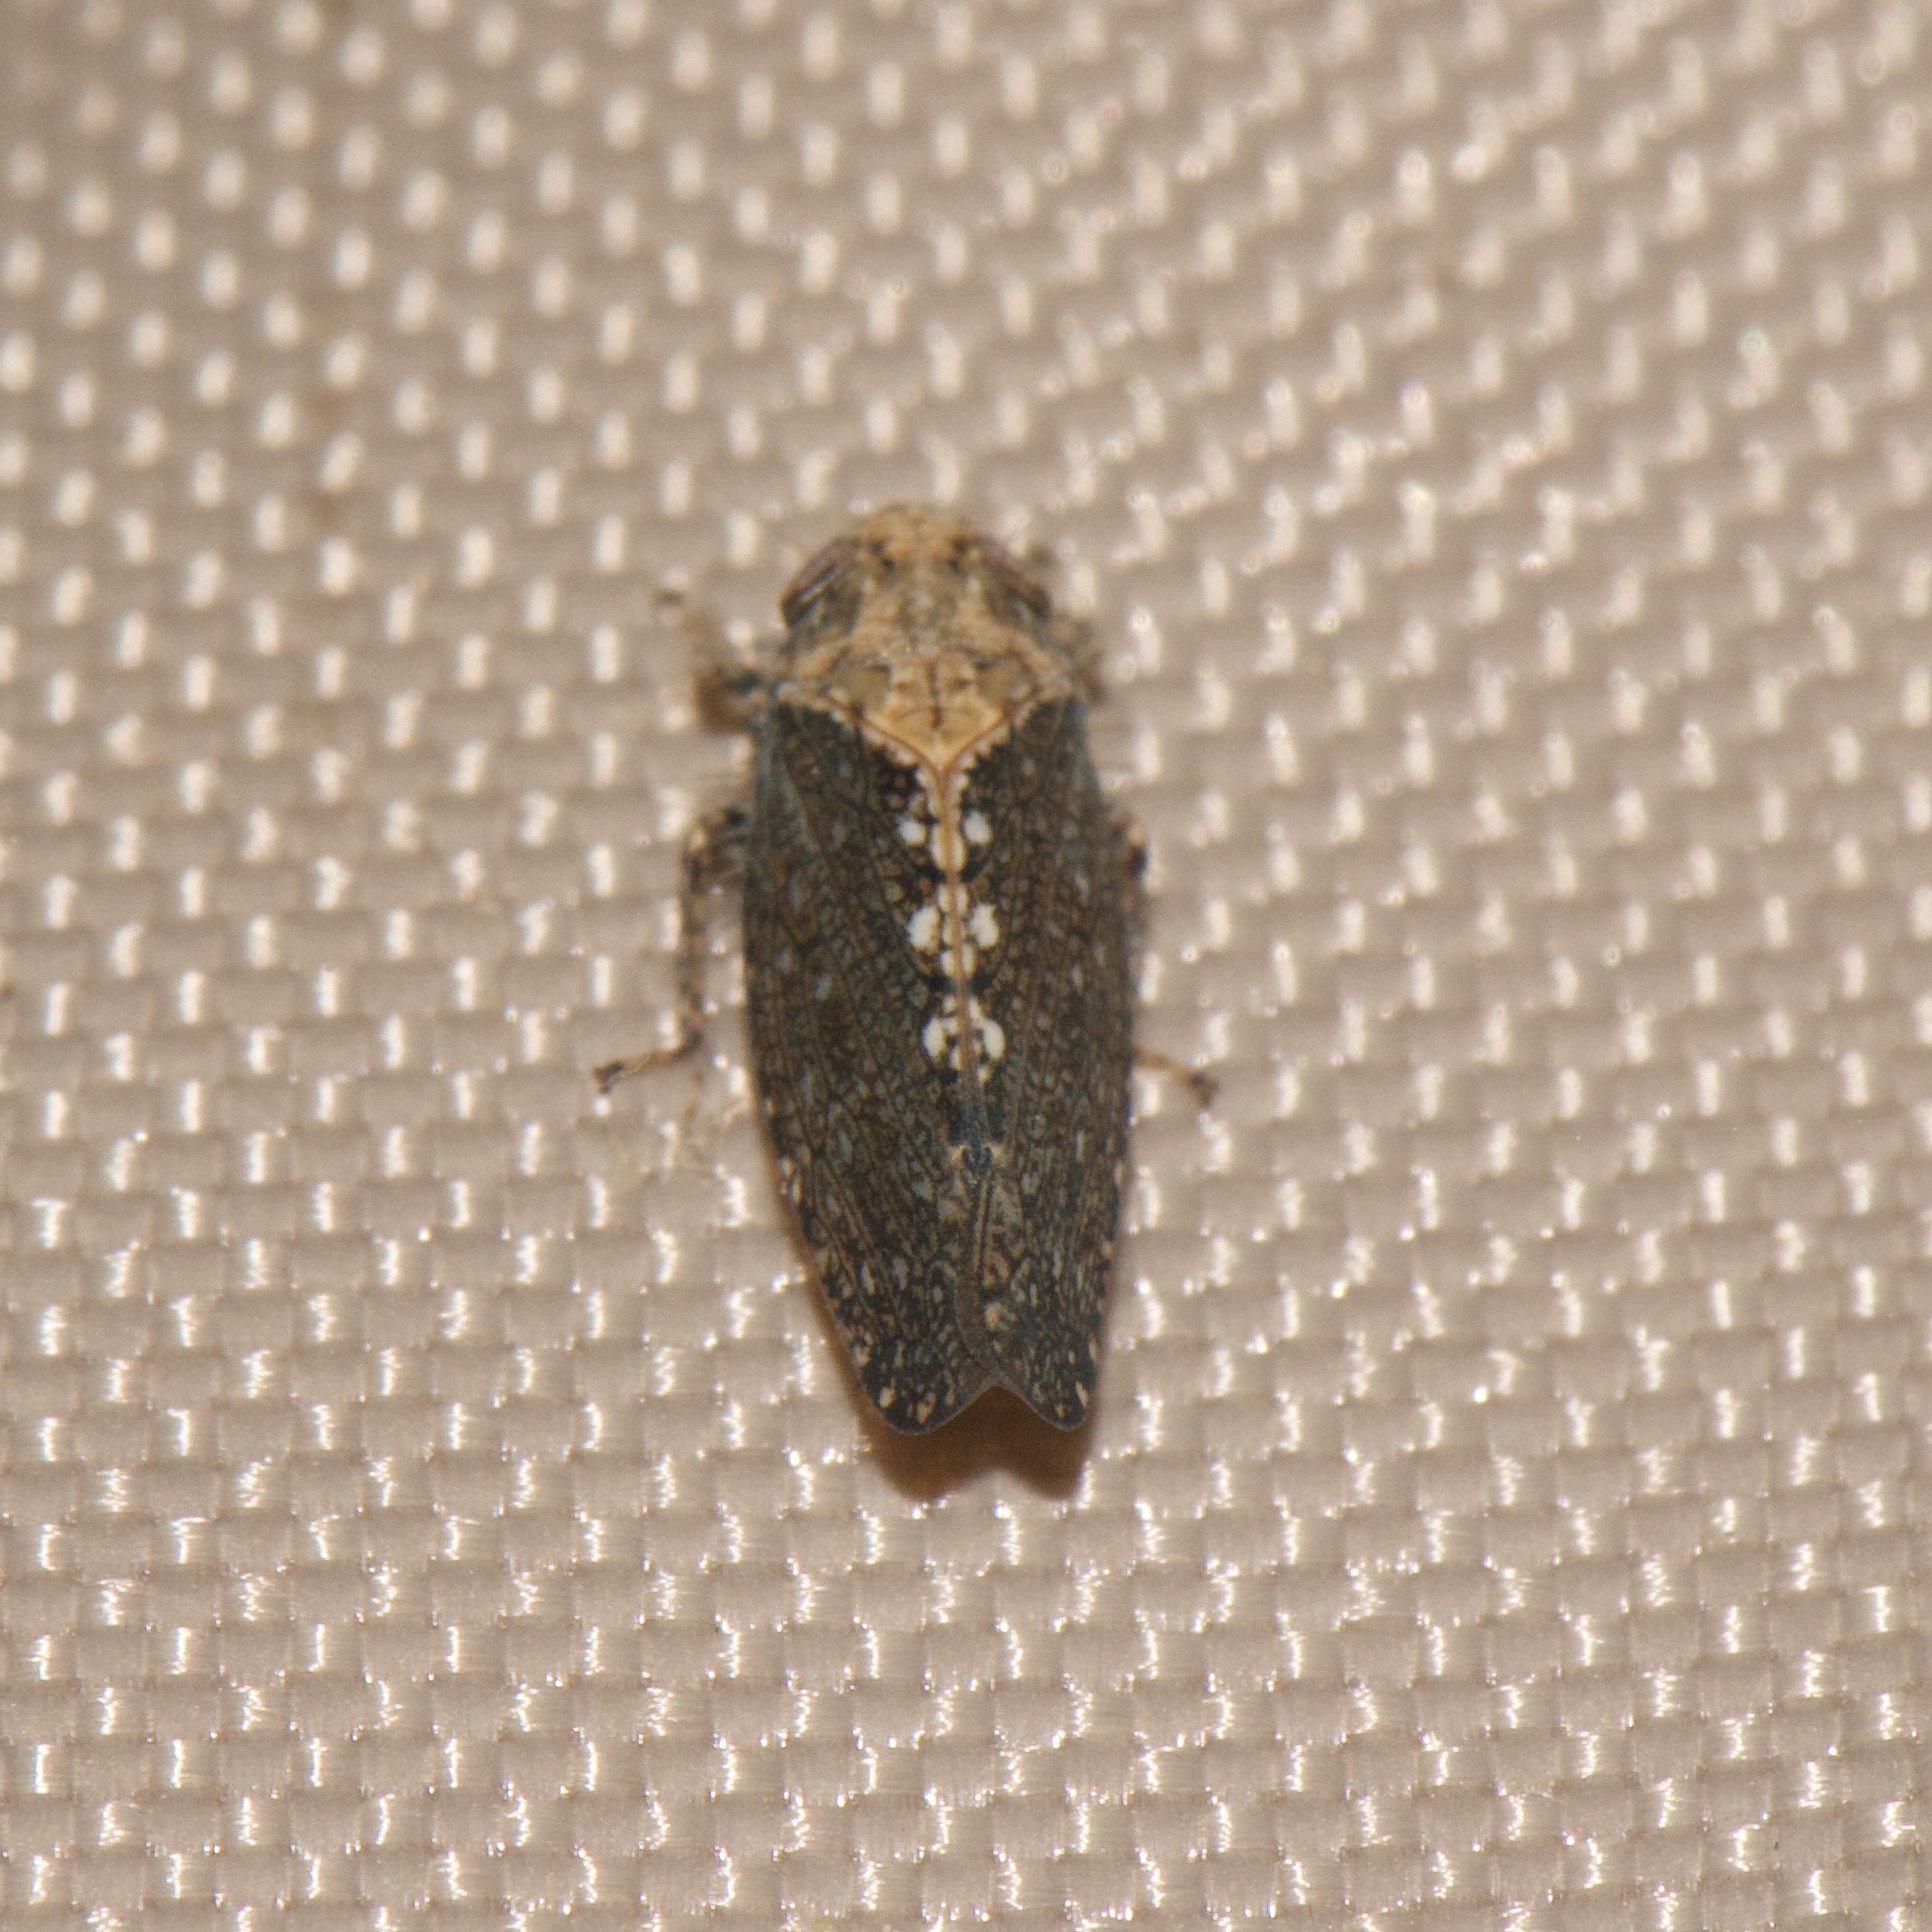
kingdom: Animalia
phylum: Arthropoda
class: Insecta
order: Hemiptera
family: Cicadellidae
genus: Excultanus
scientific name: Excultanus excultus
